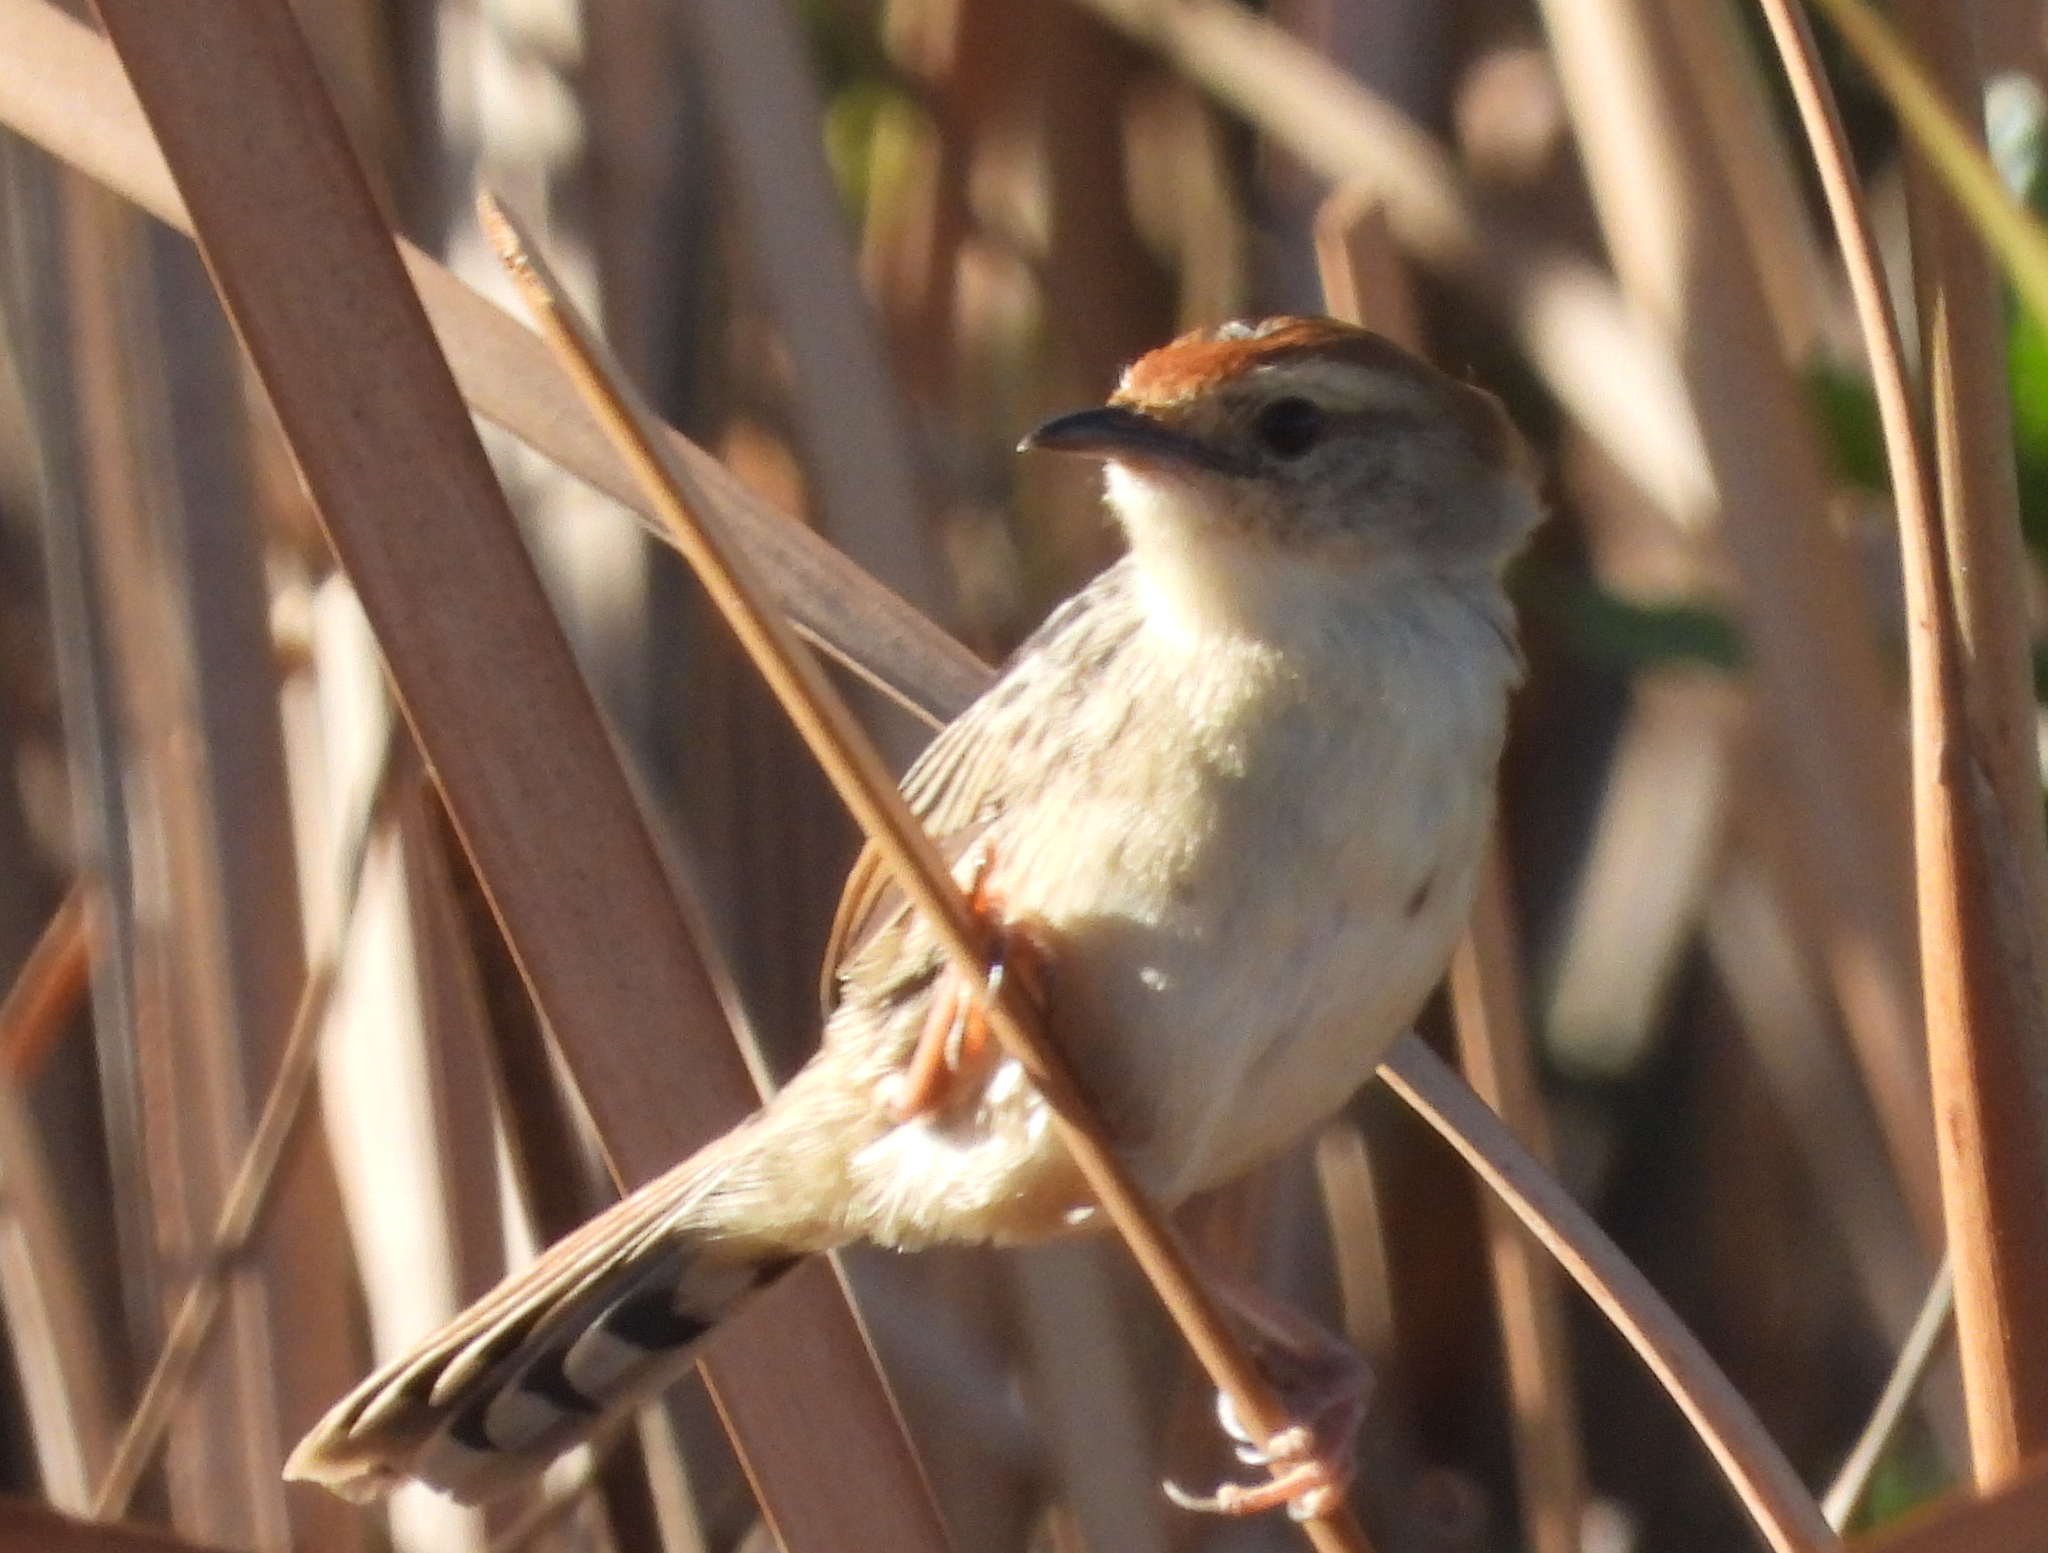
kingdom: Animalia
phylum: Chordata
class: Aves
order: Passeriformes
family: Cisticolidae
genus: Cisticola
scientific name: Cisticola tinniens
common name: Levaillant's cisticola
